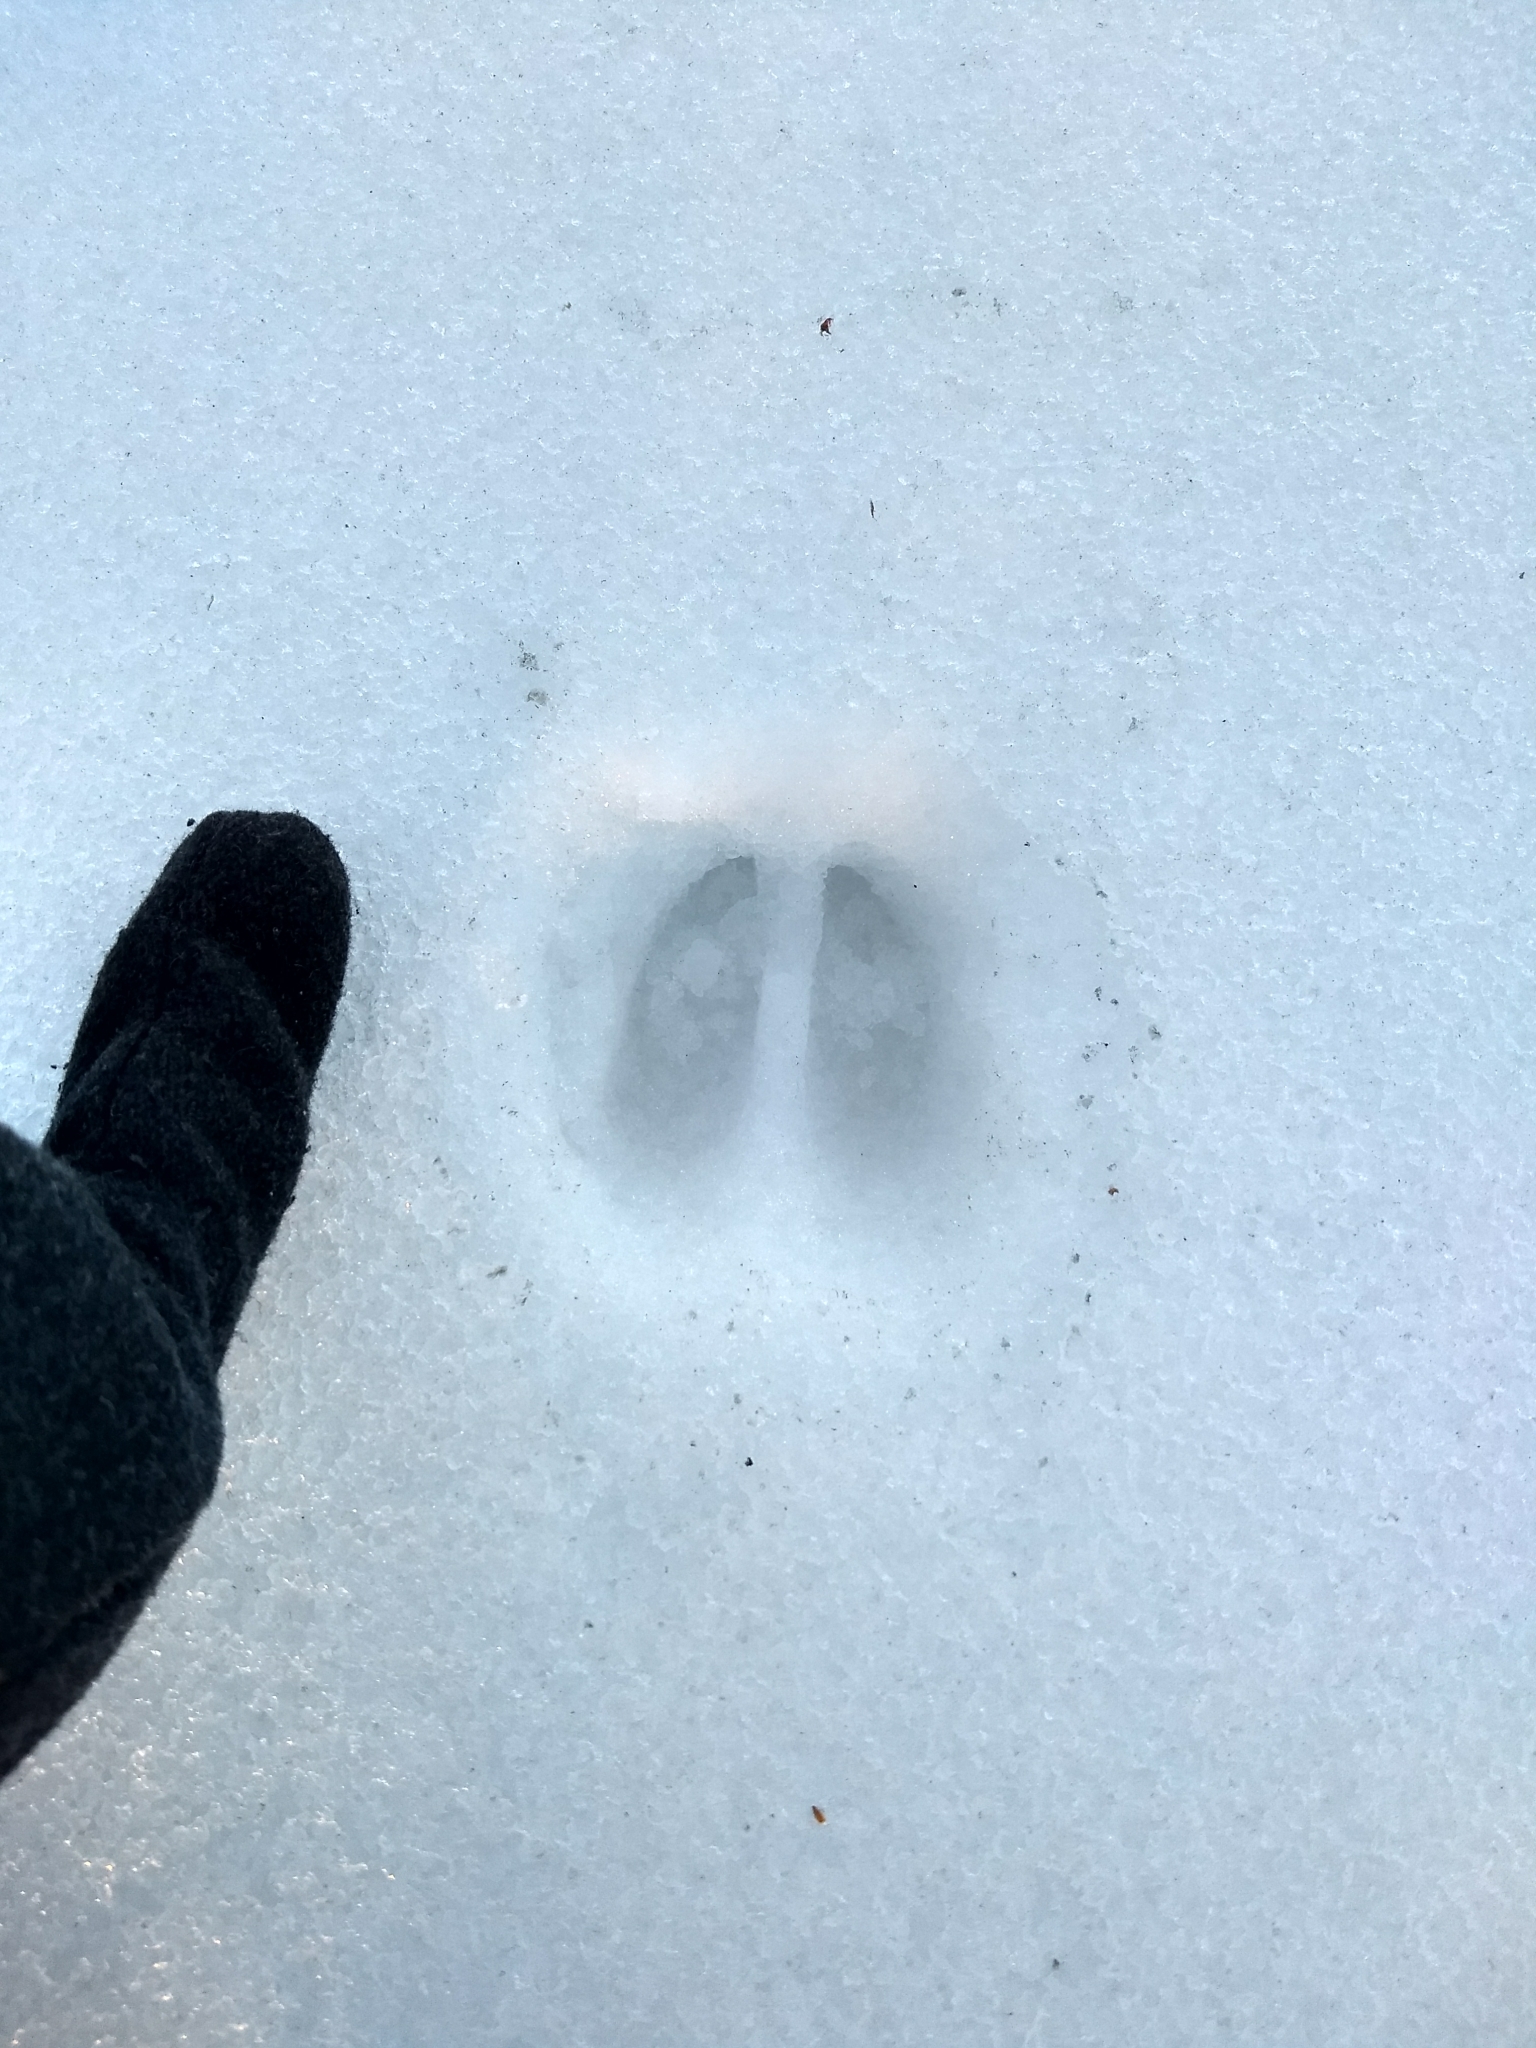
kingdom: Animalia
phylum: Chordata
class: Mammalia
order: Artiodactyla
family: Cervidae
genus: Odocoileus
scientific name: Odocoileus virginianus
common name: White-tailed deer
